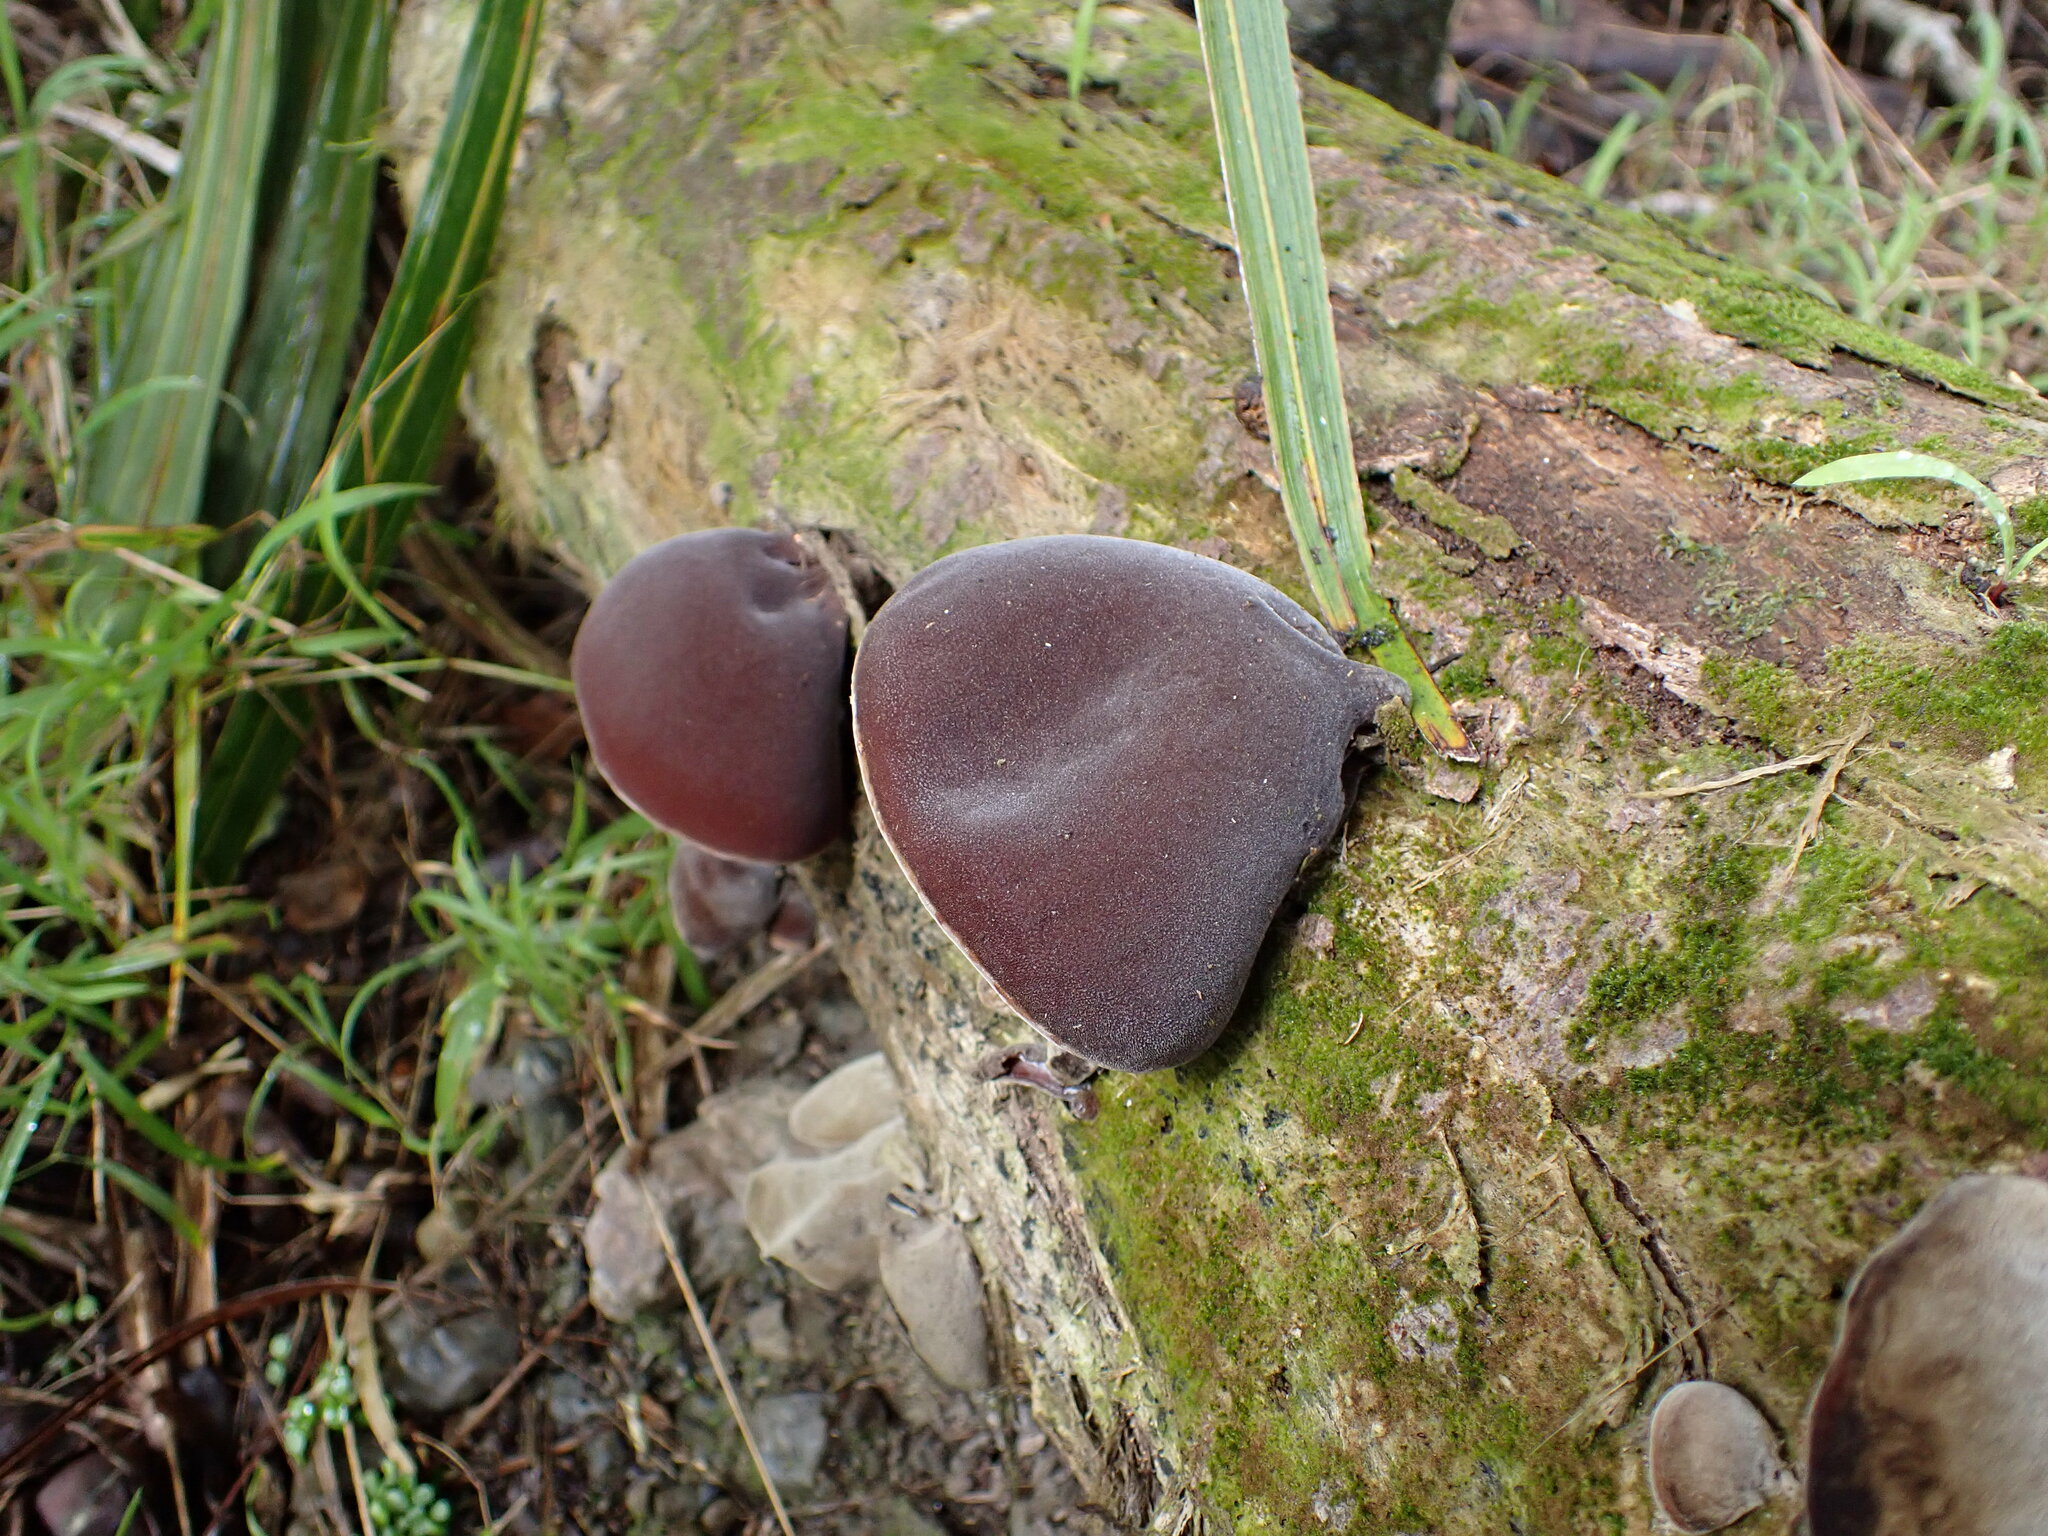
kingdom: Fungi
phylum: Basidiomycota
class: Agaricomycetes
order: Auriculariales
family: Auriculariaceae
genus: Auricularia
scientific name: Auricularia cornea
